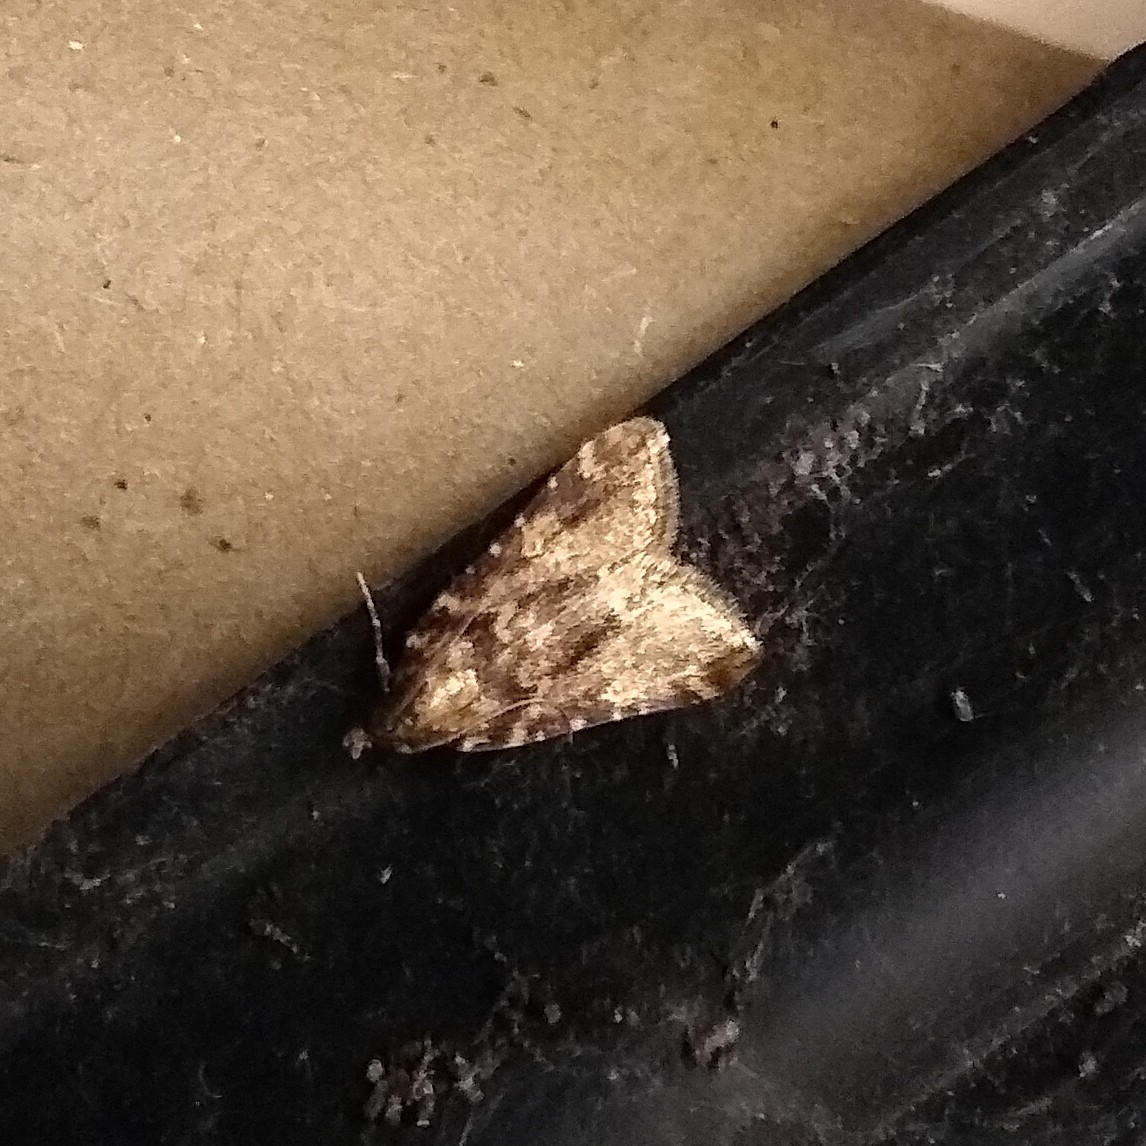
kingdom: Animalia
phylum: Arthropoda
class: Insecta
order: Lepidoptera
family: Pyralidae
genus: Aglossa
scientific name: Aglossa caprealis
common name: Small tabby
